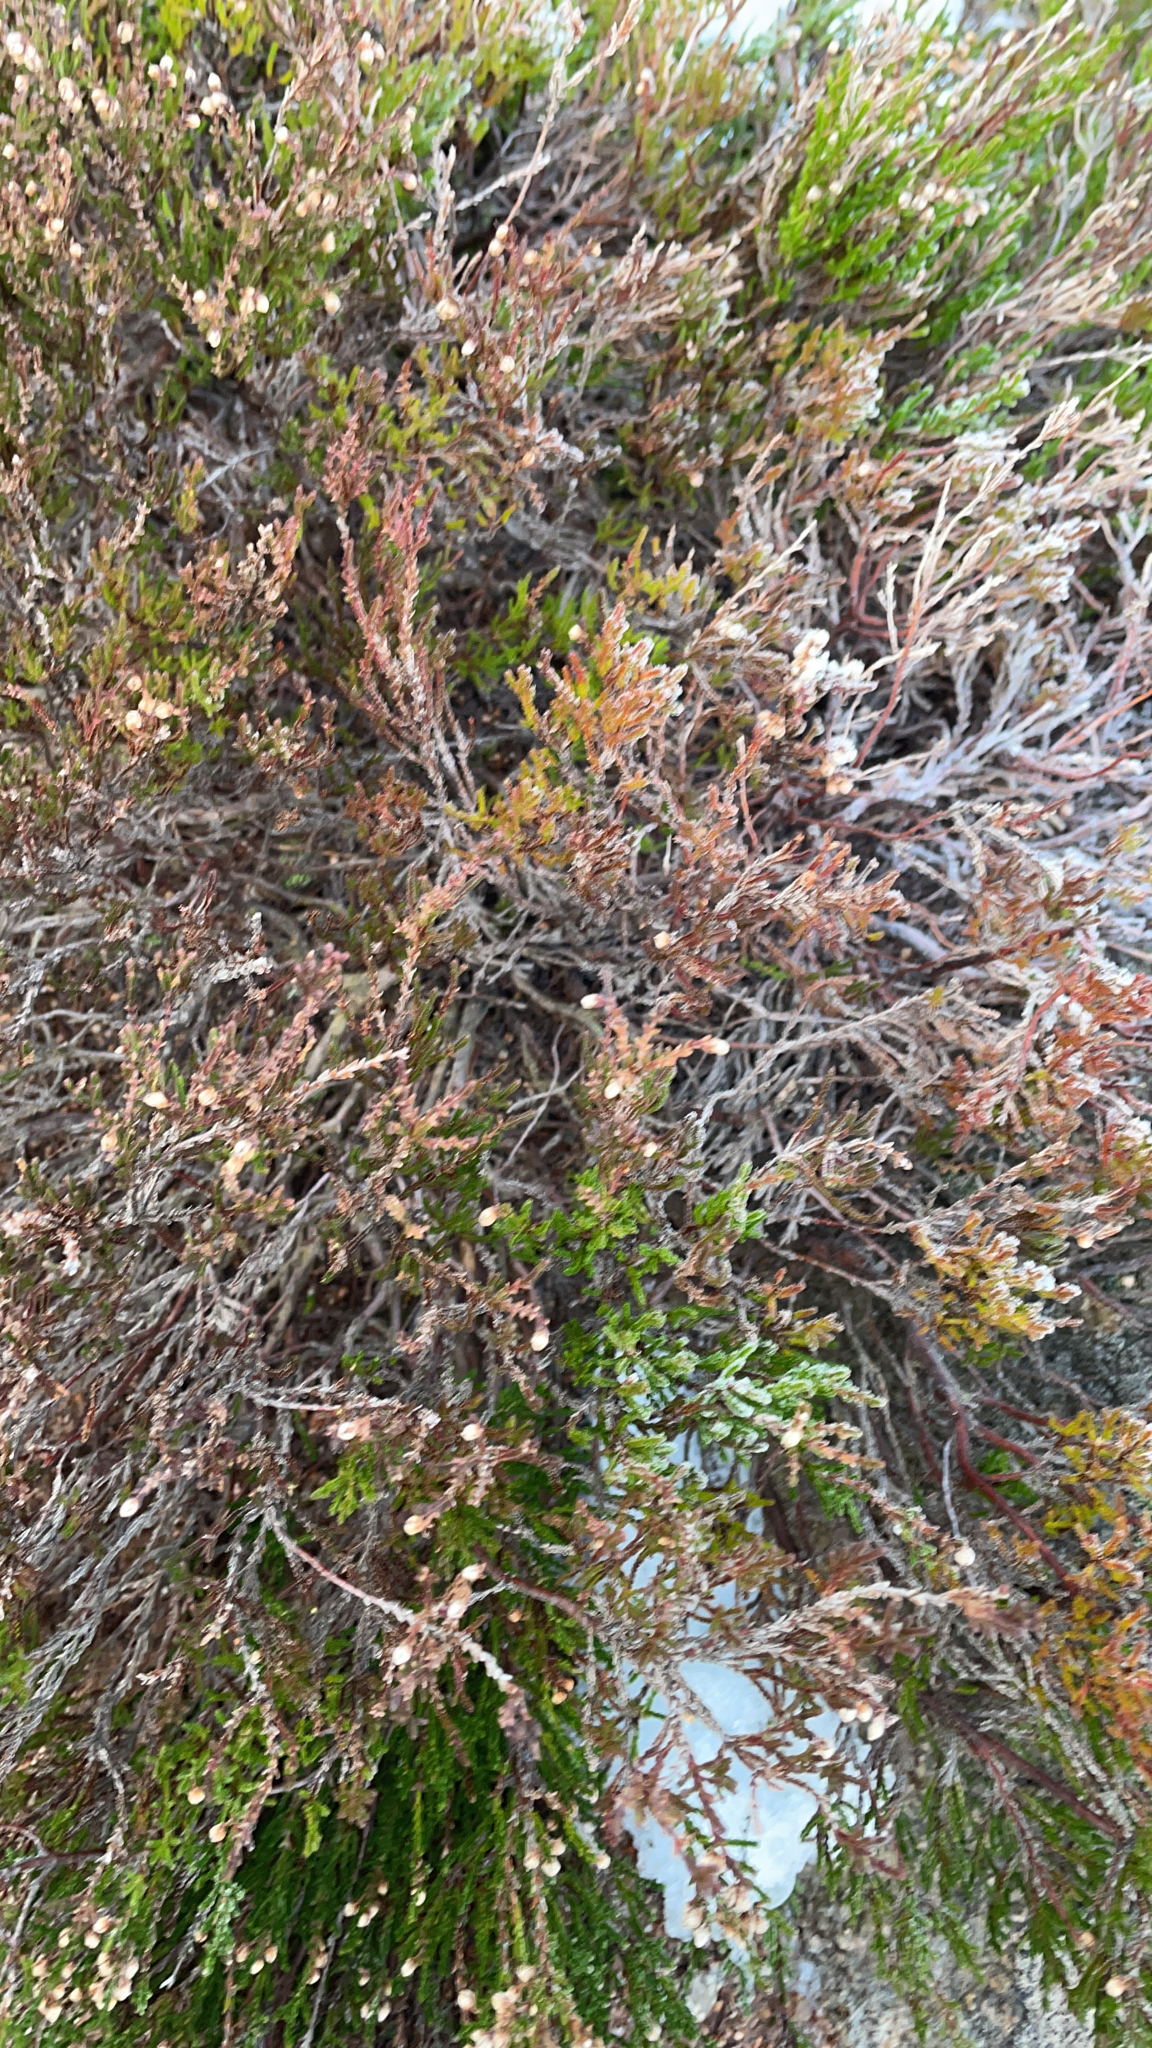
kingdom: Plantae
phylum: Tracheophyta
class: Magnoliopsida
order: Ericales
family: Ericaceae
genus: Calluna
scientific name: Calluna vulgaris
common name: Heather
